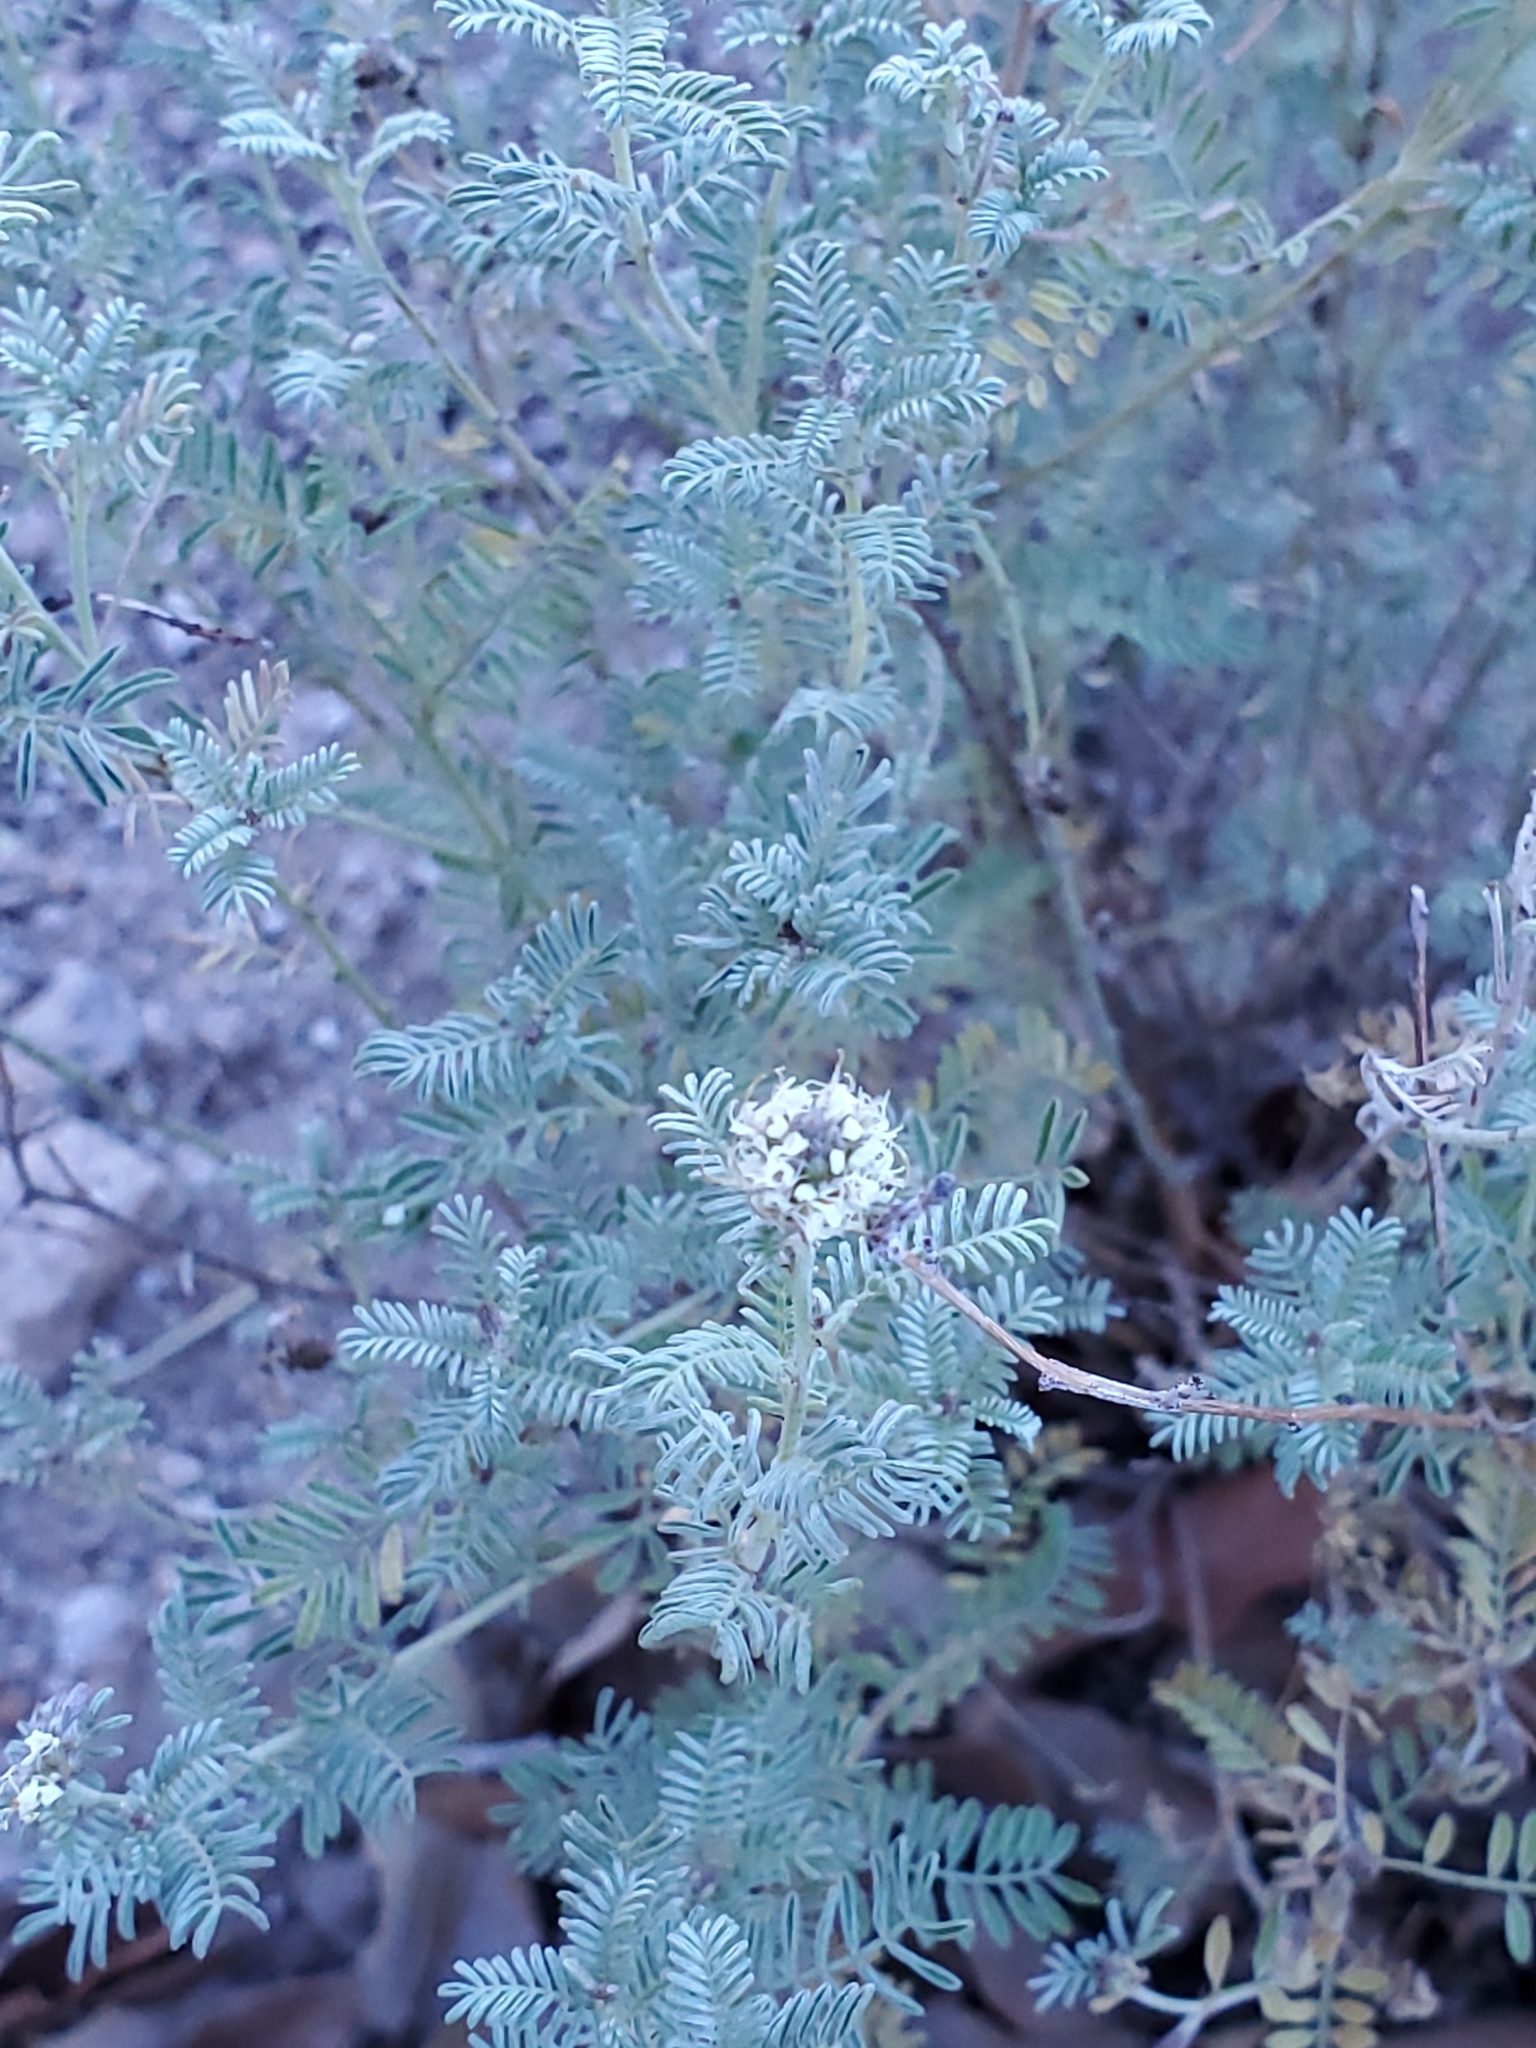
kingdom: Plantae
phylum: Tracheophyta
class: Magnoliopsida
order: Fabales
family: Fabaceae
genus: Dalea
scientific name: Dalea albiflora
